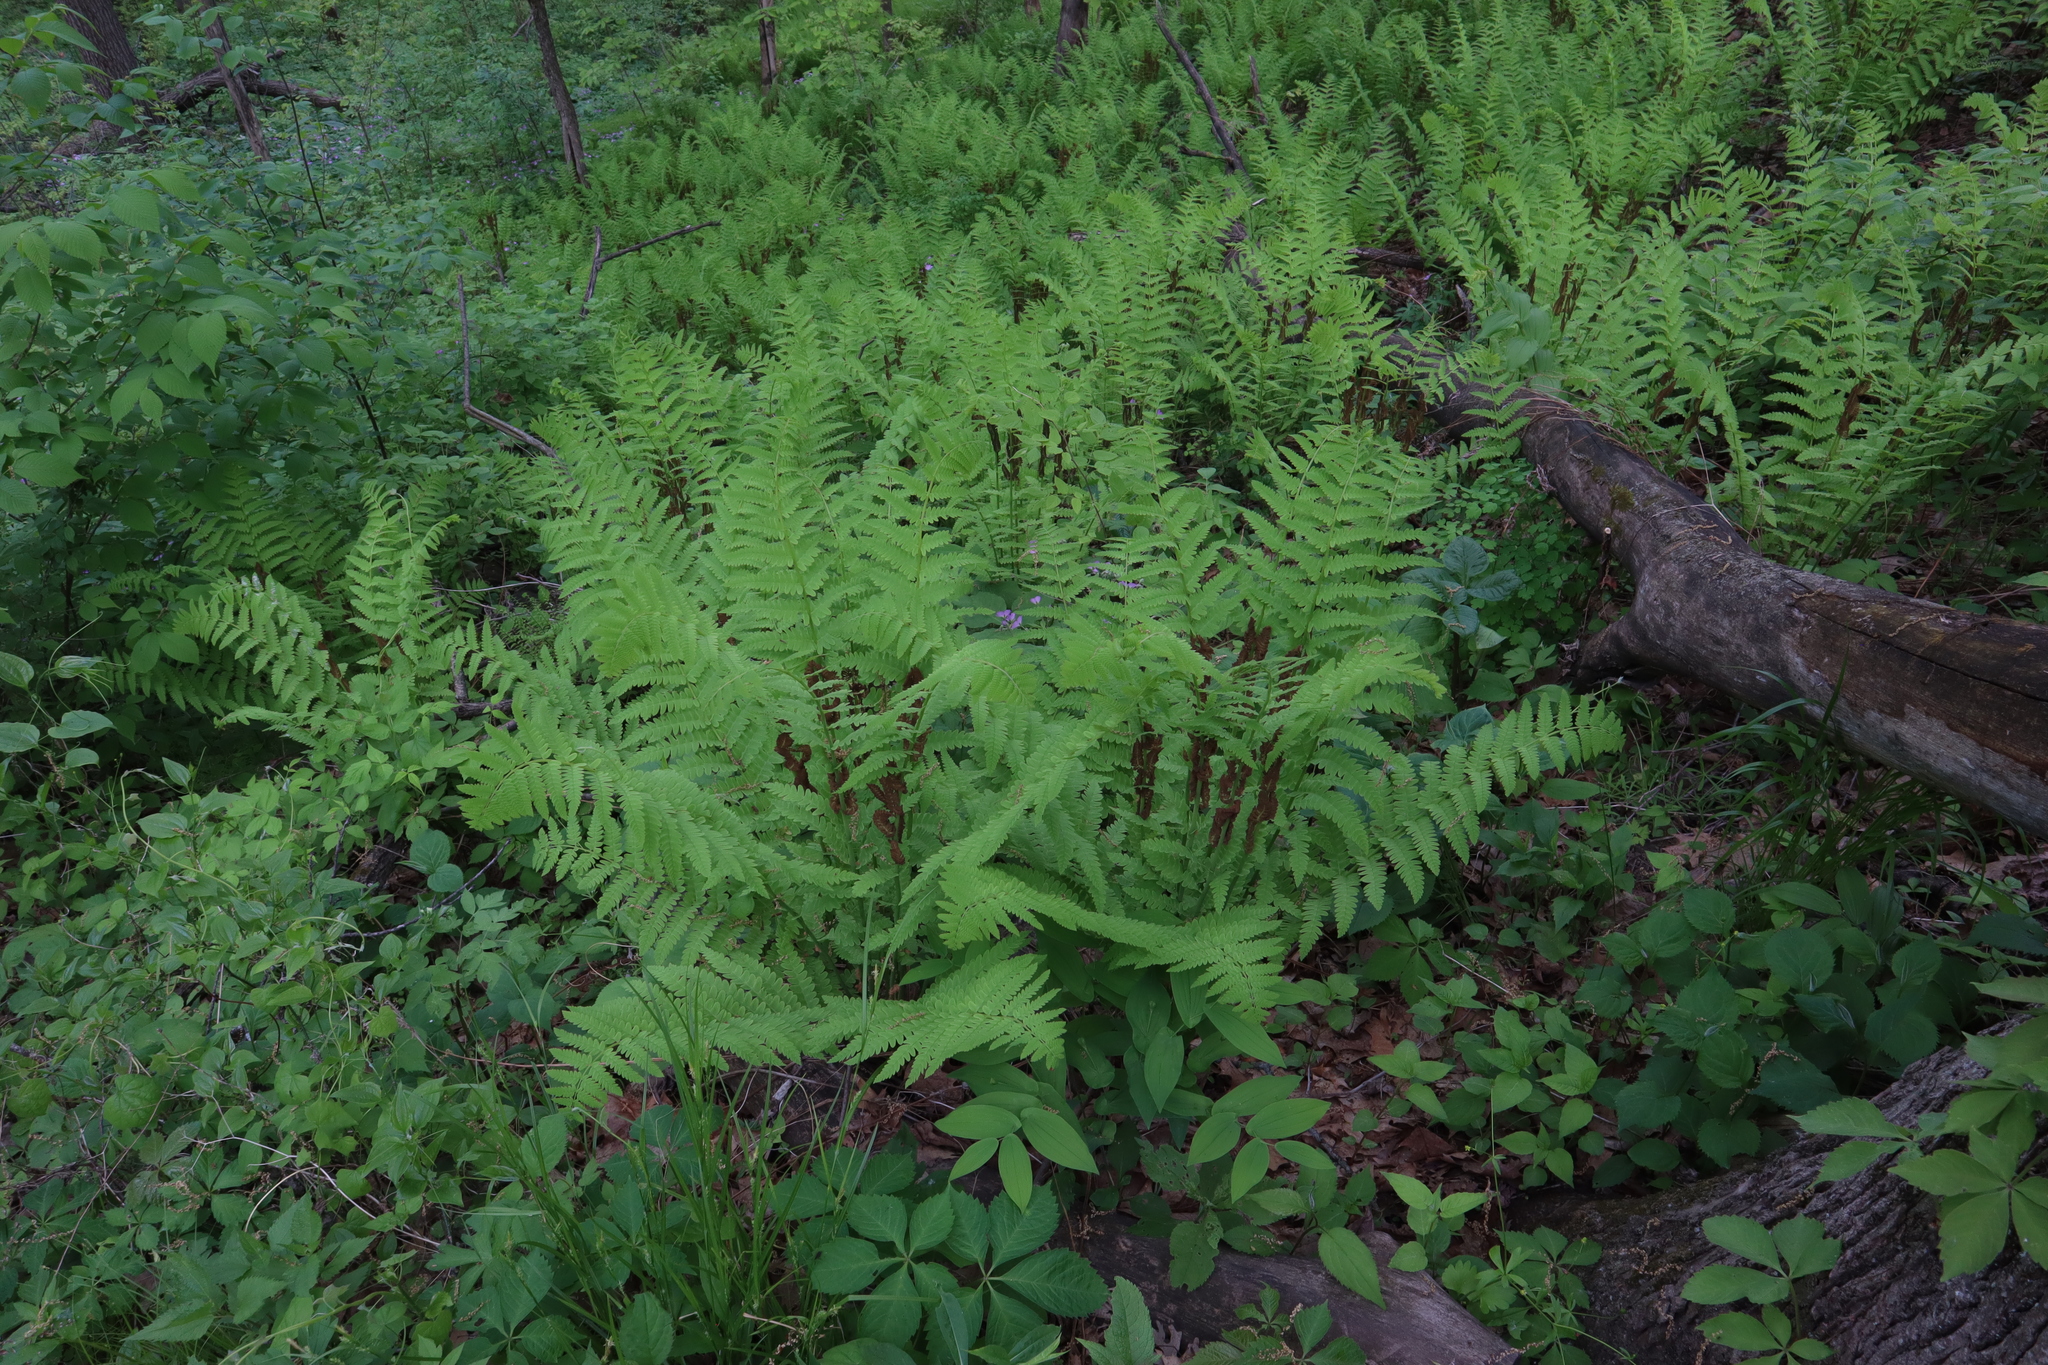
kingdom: Plantae
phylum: Tracheophyta
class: Polypodiopsida
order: Osmundales
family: Osmundaceae
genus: Claytosmunda
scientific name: Claytosmunda claytoniana
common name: Clayton's fern
